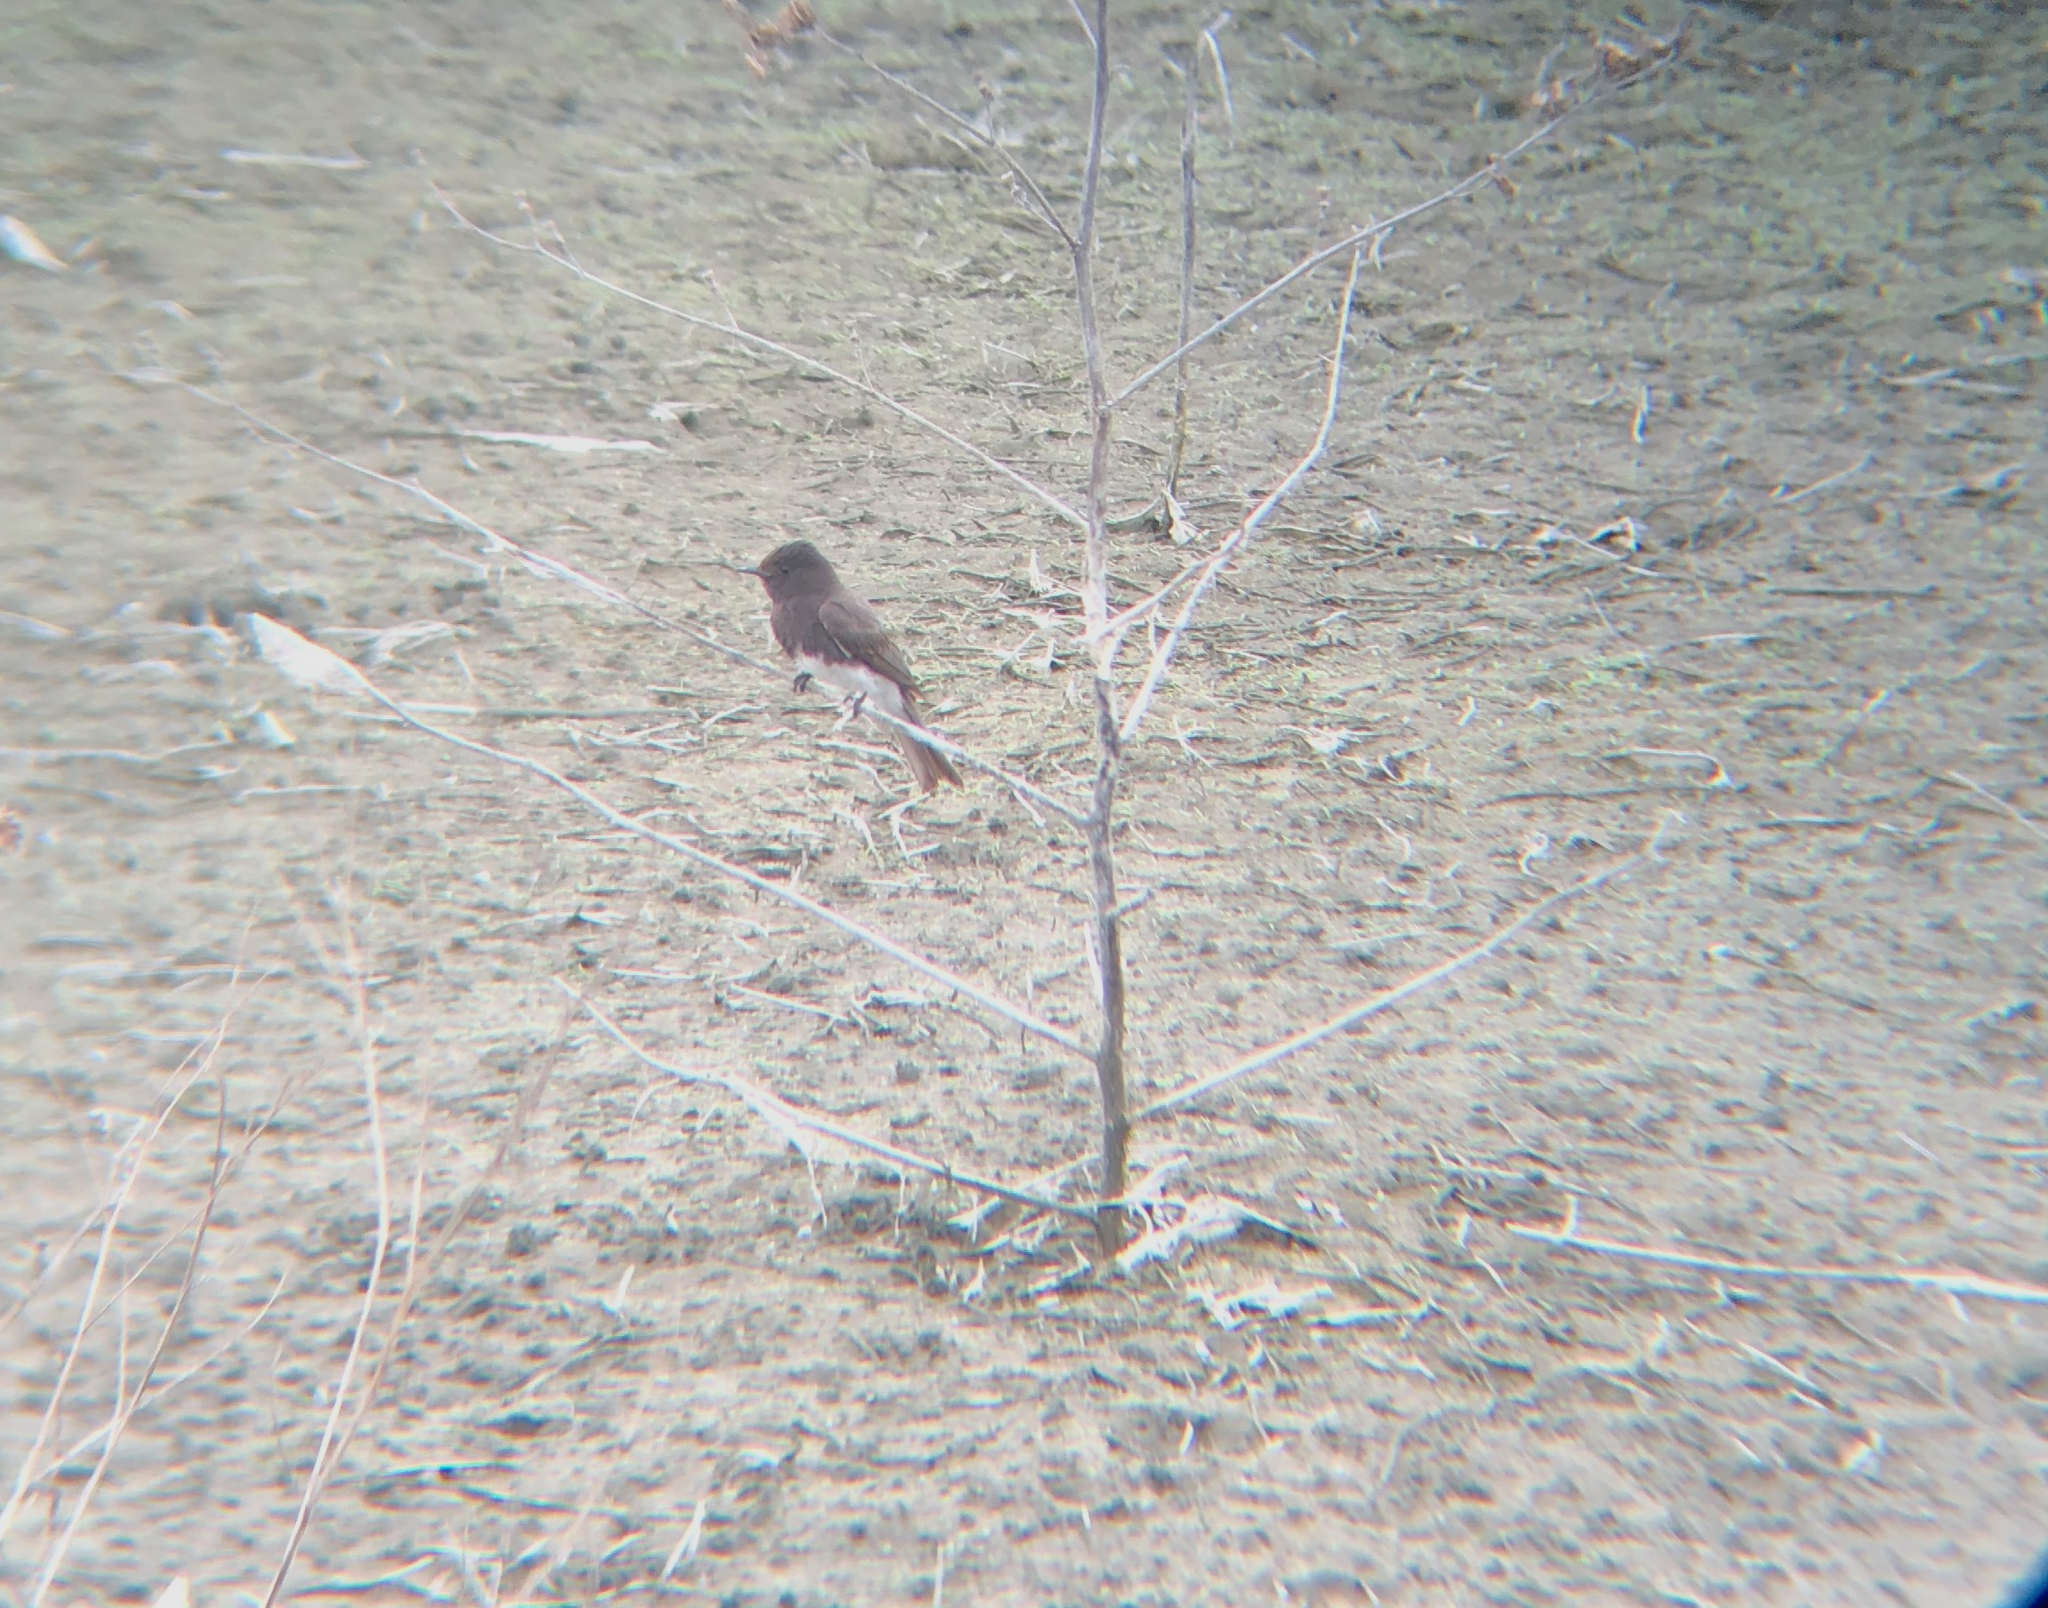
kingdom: Animalia
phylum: Chordata
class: Aves
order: Passeriformes
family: Tyrannidae
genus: Sayornis
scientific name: Sayornis nigricans
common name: Black phoebe
